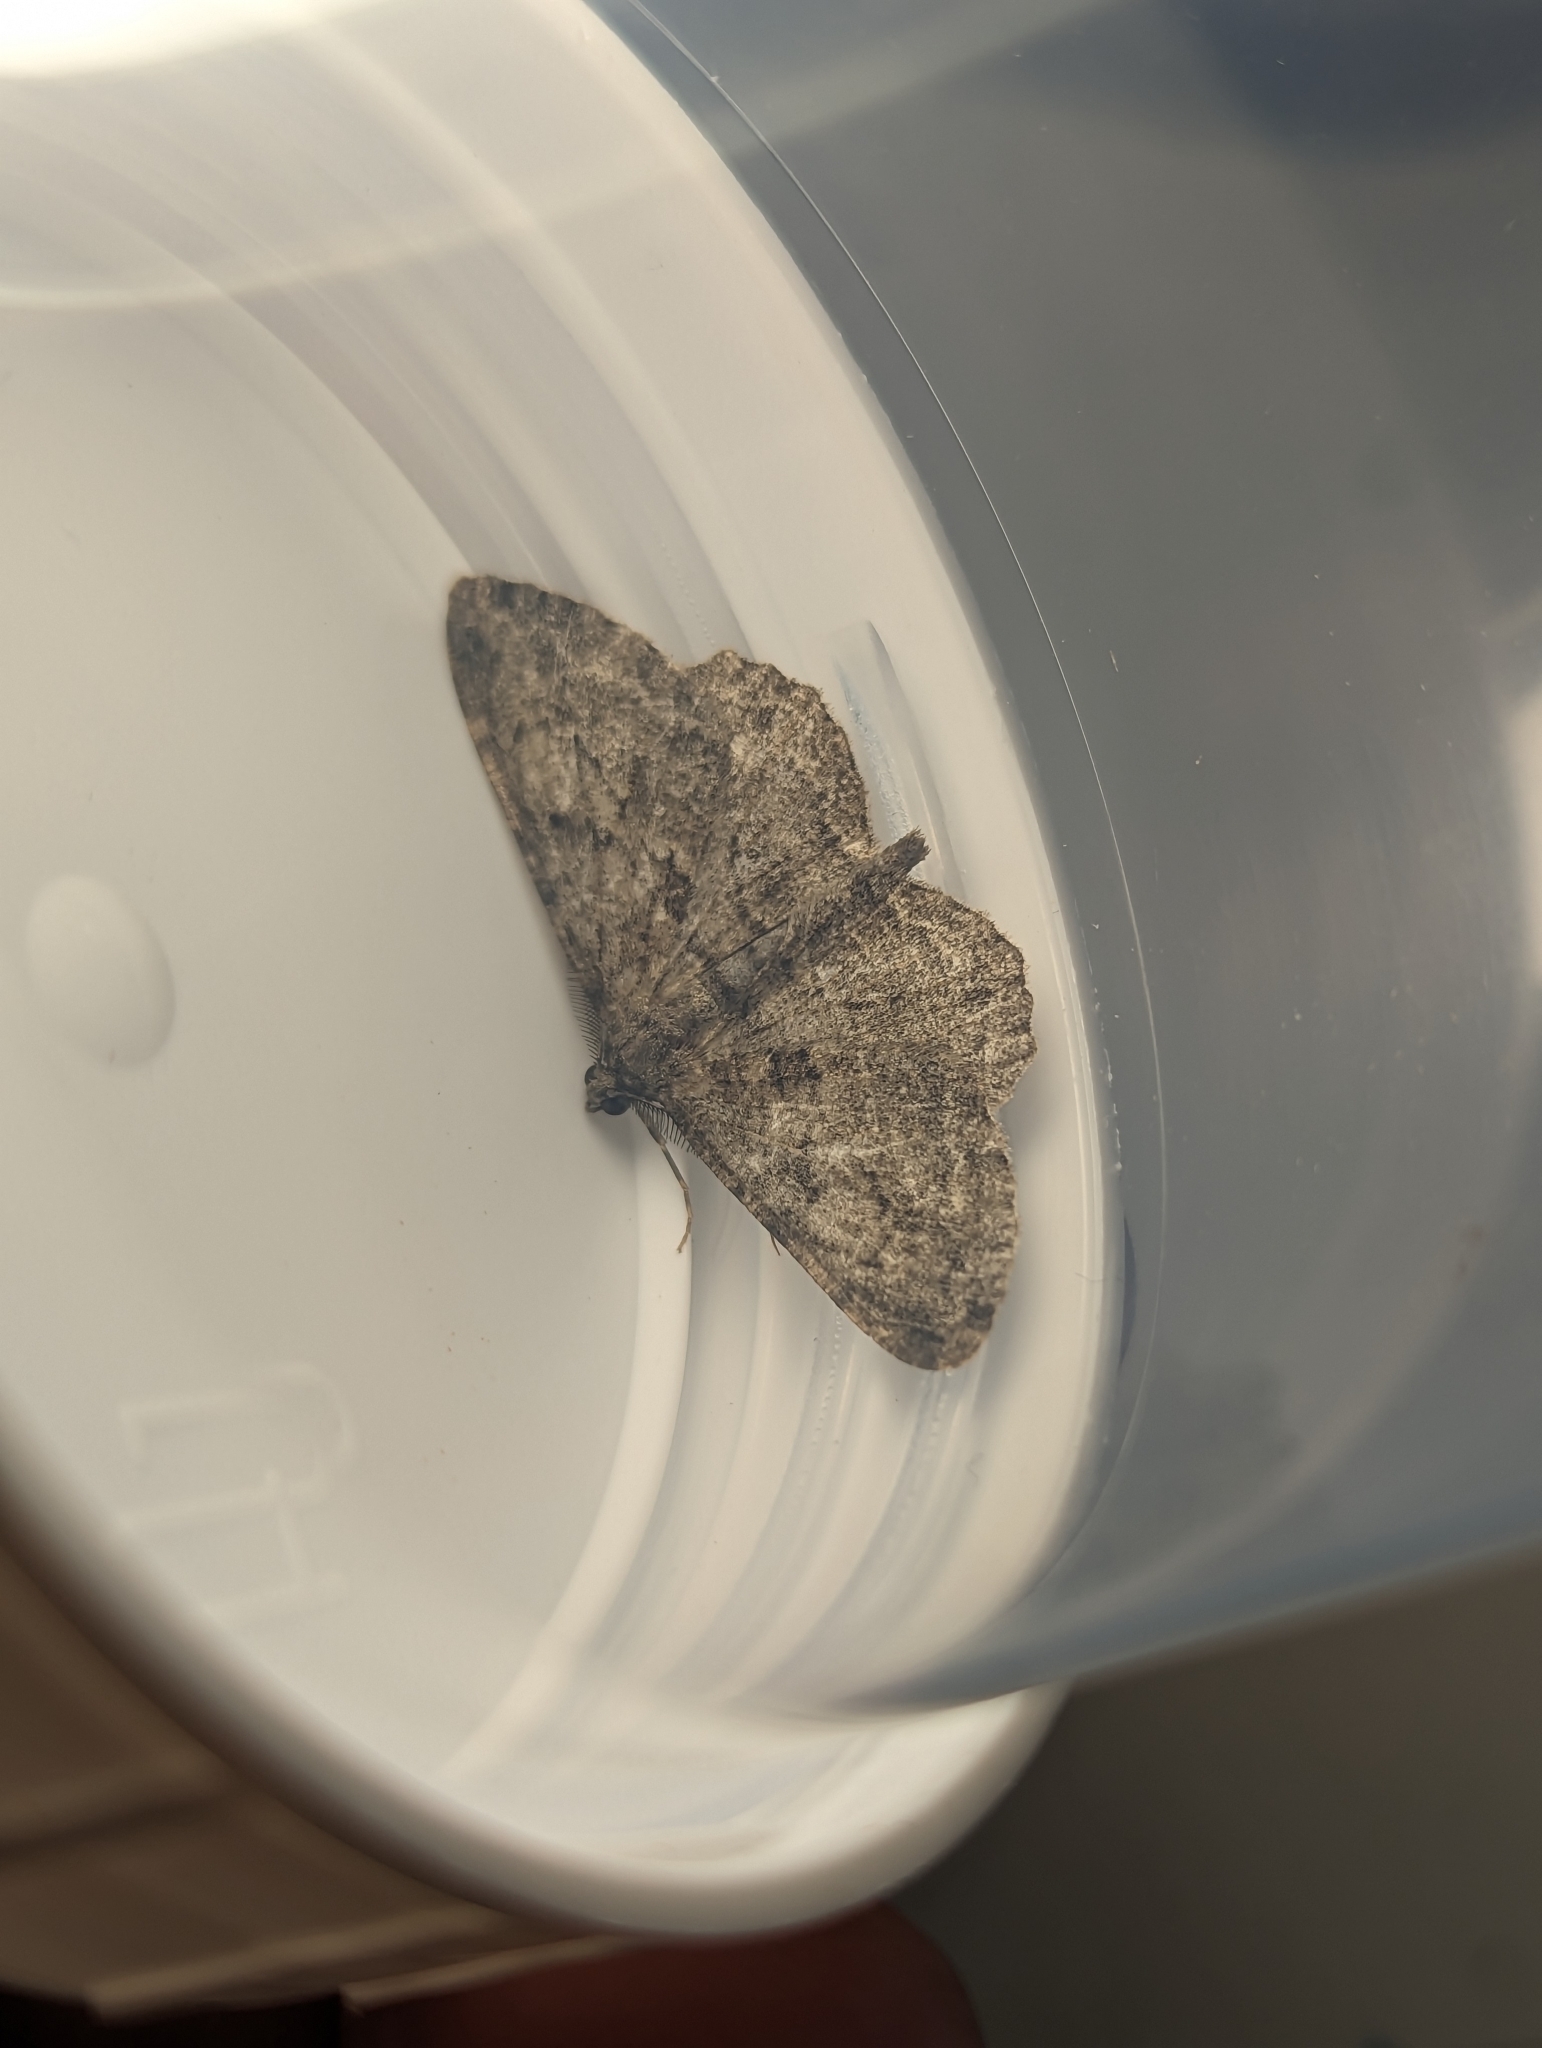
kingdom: Animalia
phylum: Arthropoda
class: Insecta
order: Lepidoptera
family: Geometridae
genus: Peribatodes
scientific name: Peribatodes rhomboidaria
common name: Willow beauty
